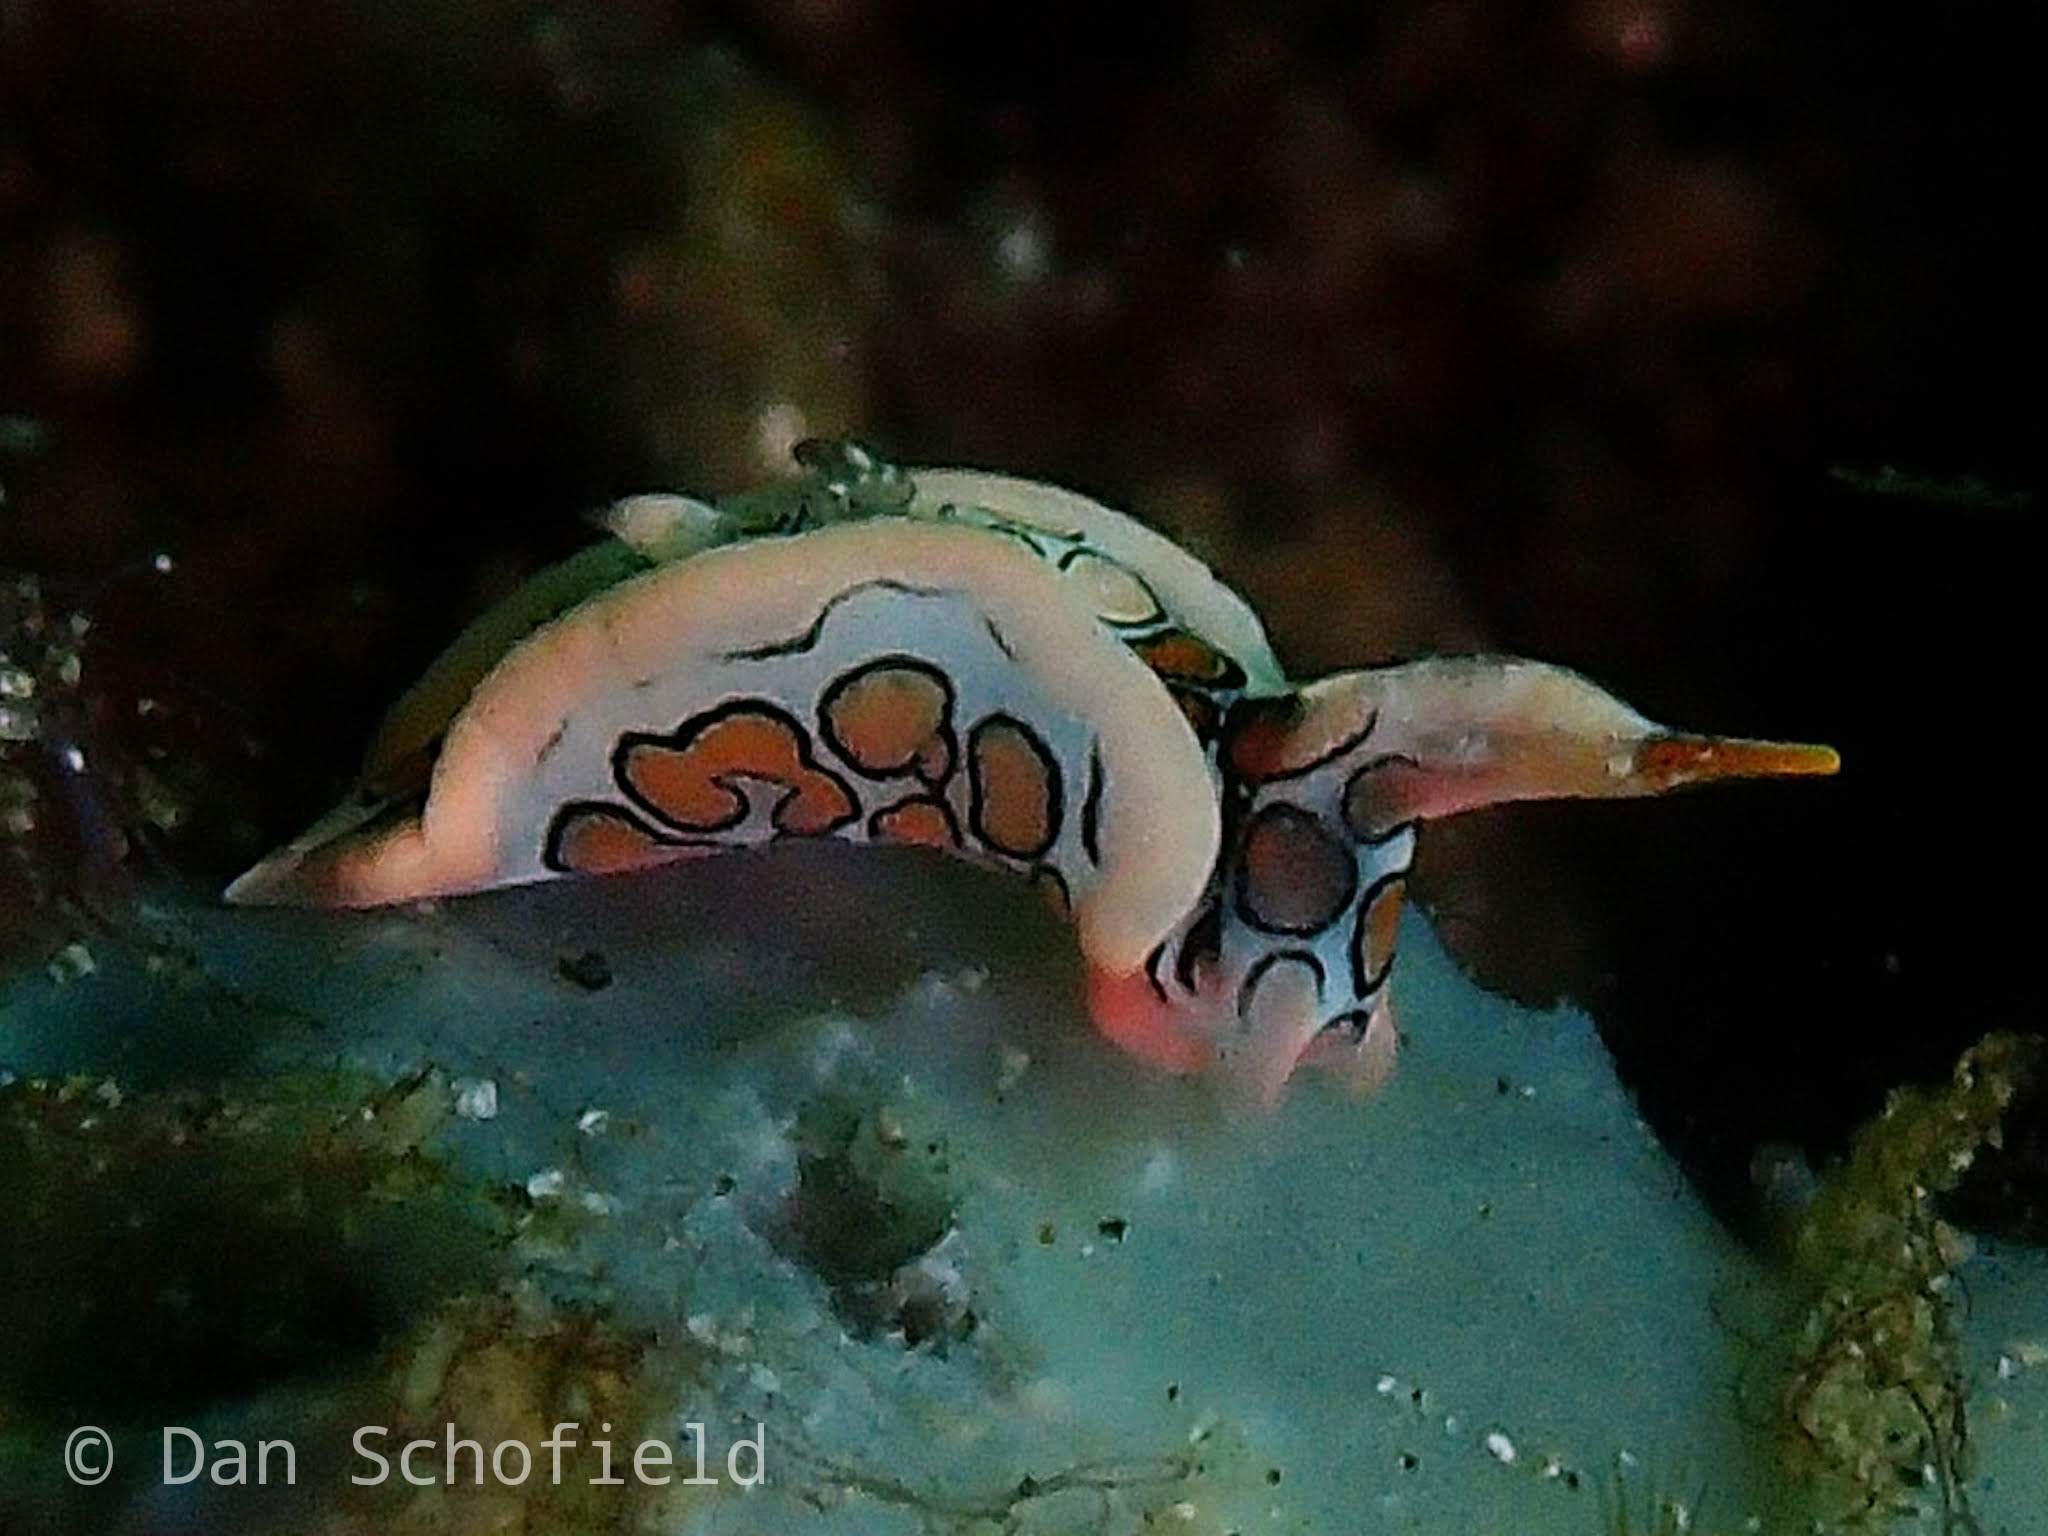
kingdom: Animalia
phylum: Mollusca
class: Gastropoda
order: Cephalaspidea
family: Gastropteridae
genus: Sagaminopteron
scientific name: Sagaminopteron psychedelicum
